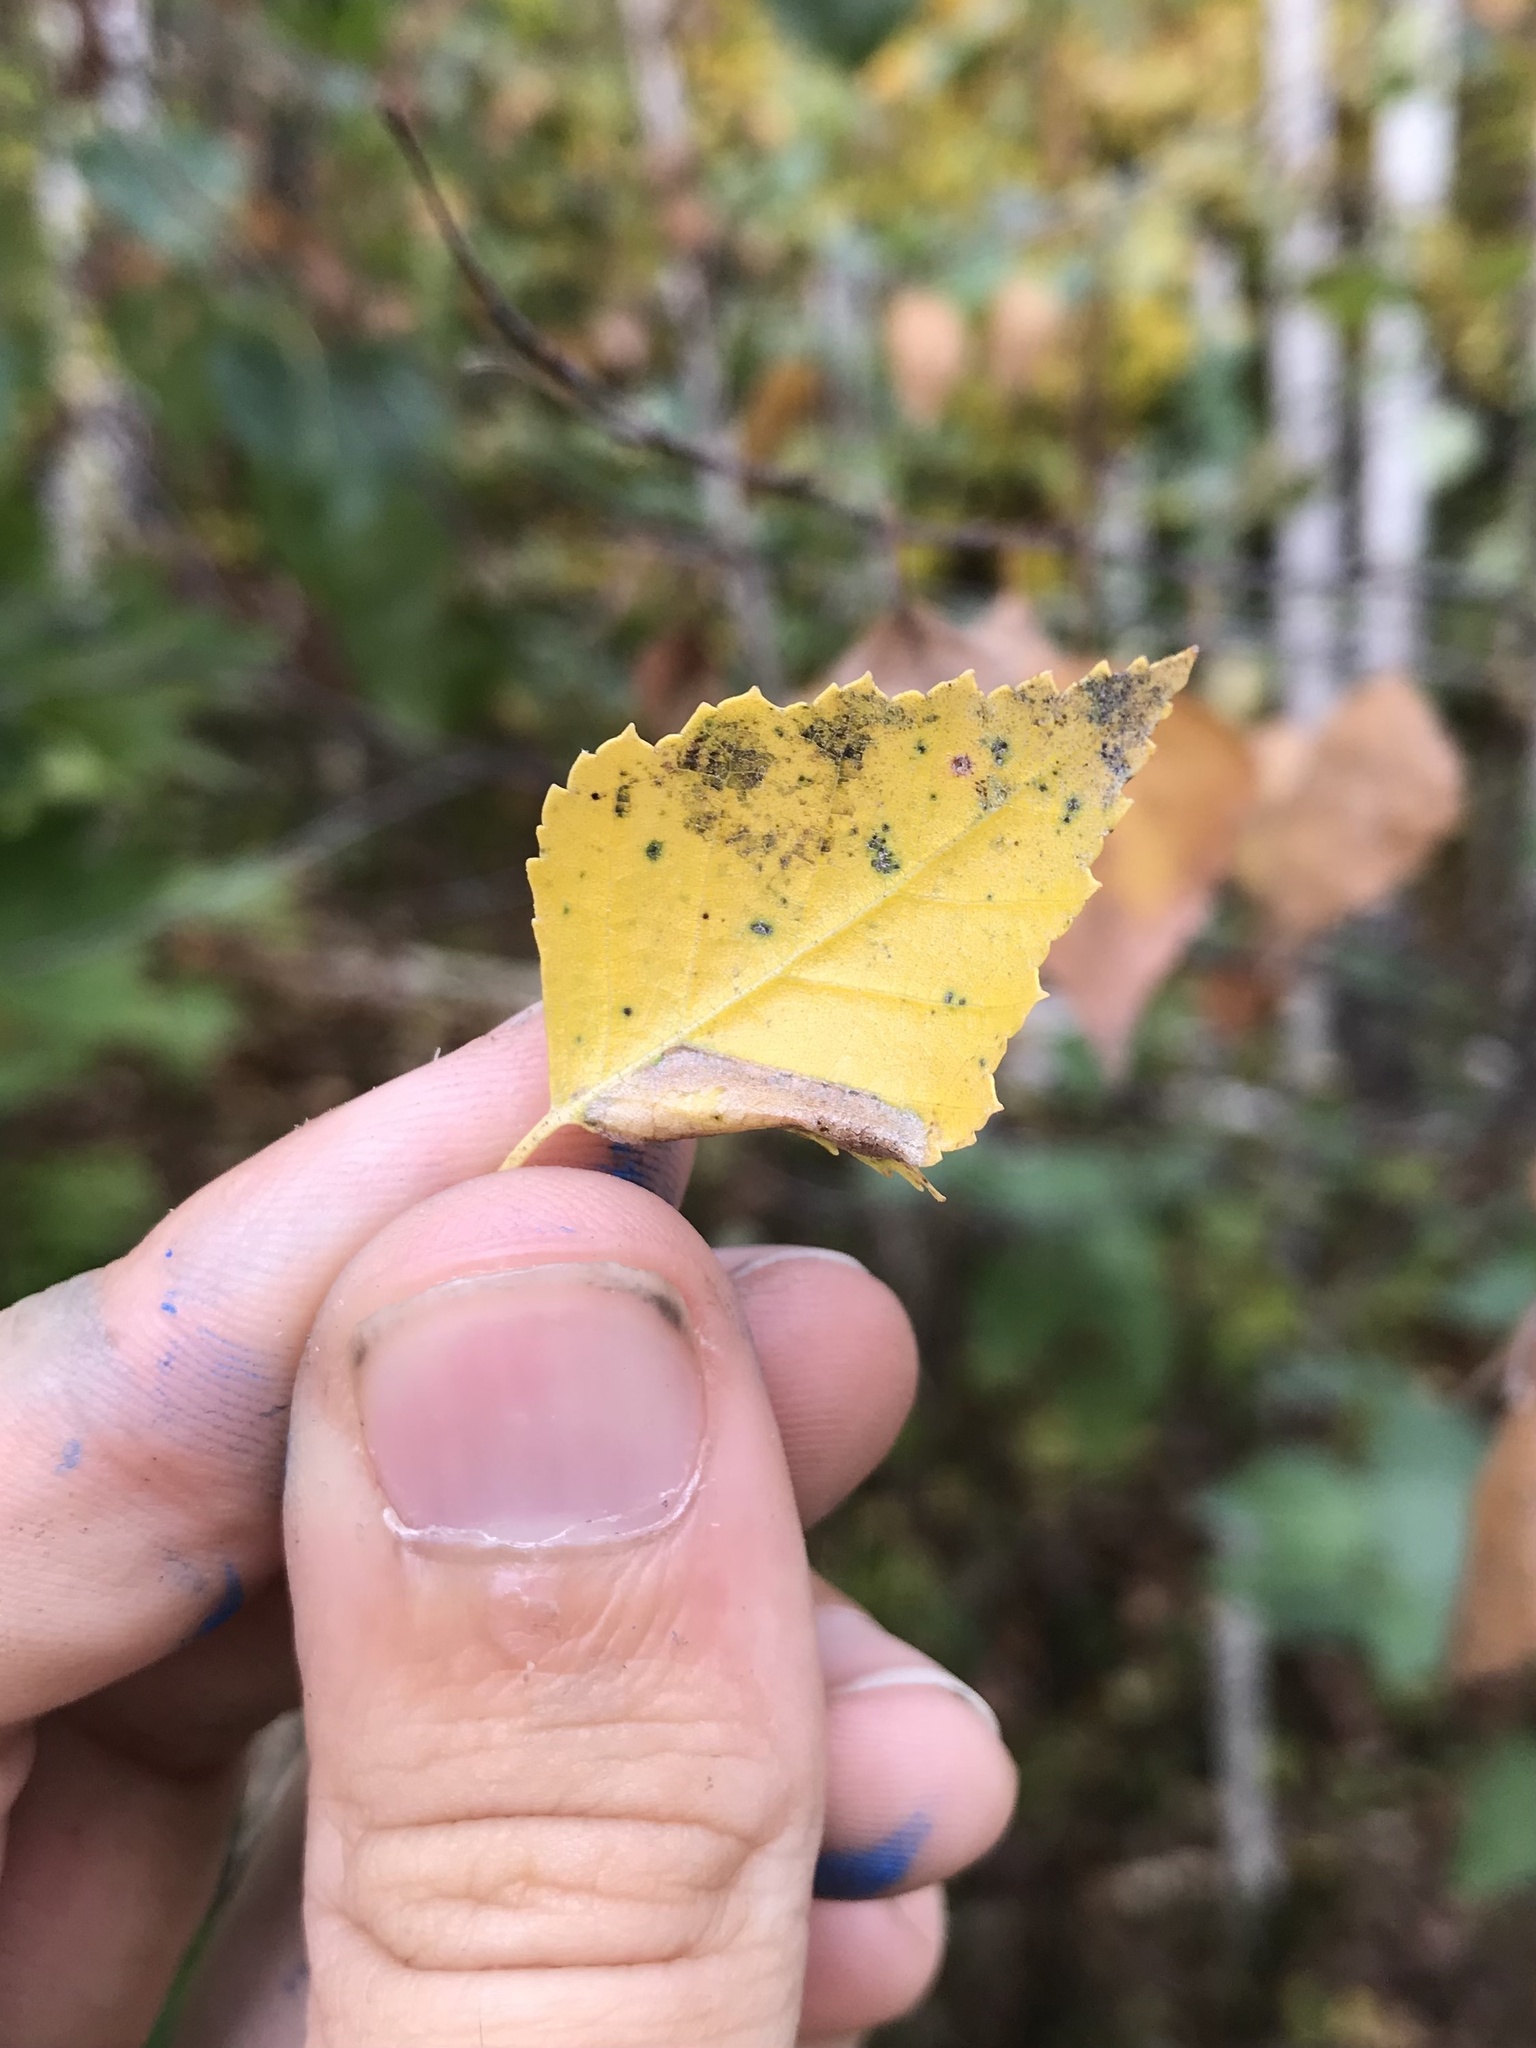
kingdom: Animalia
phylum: Arthropoda
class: Insecta
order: Lepidoptera
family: Gracillariidae
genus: Phyllonorycter
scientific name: Phyllonorycter martiella
